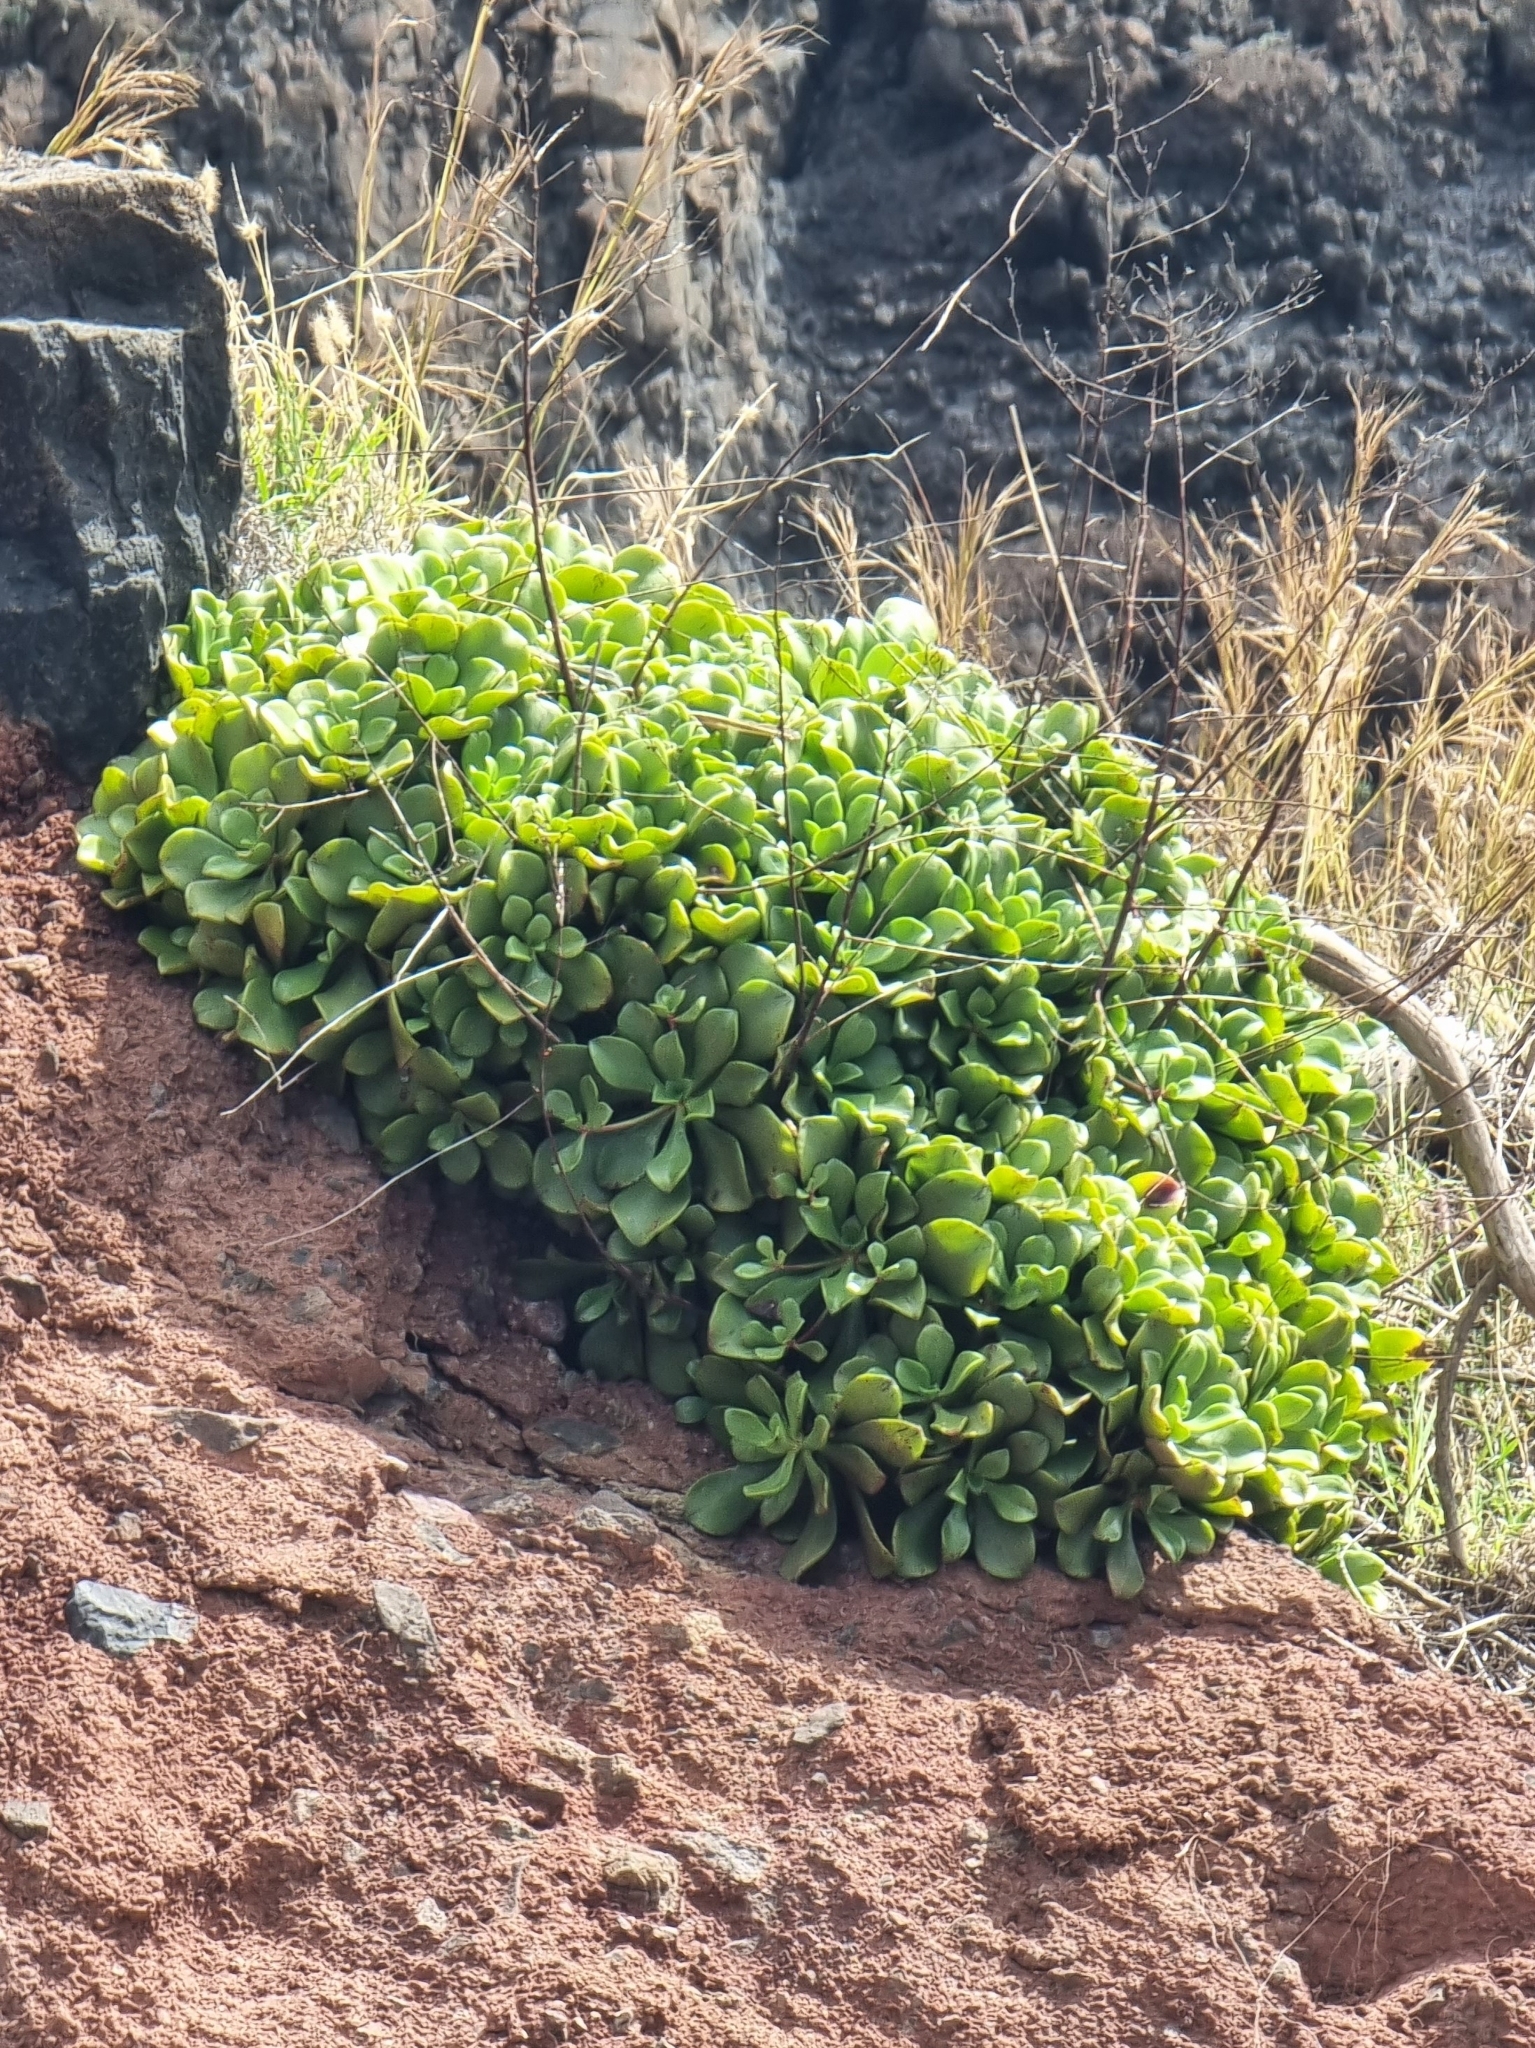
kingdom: Plantae
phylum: Tracheophyta
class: Magnoliopsida
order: Saxifragales
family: Crassulaceae
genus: Aeonium
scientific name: Aeonium glutinosum
